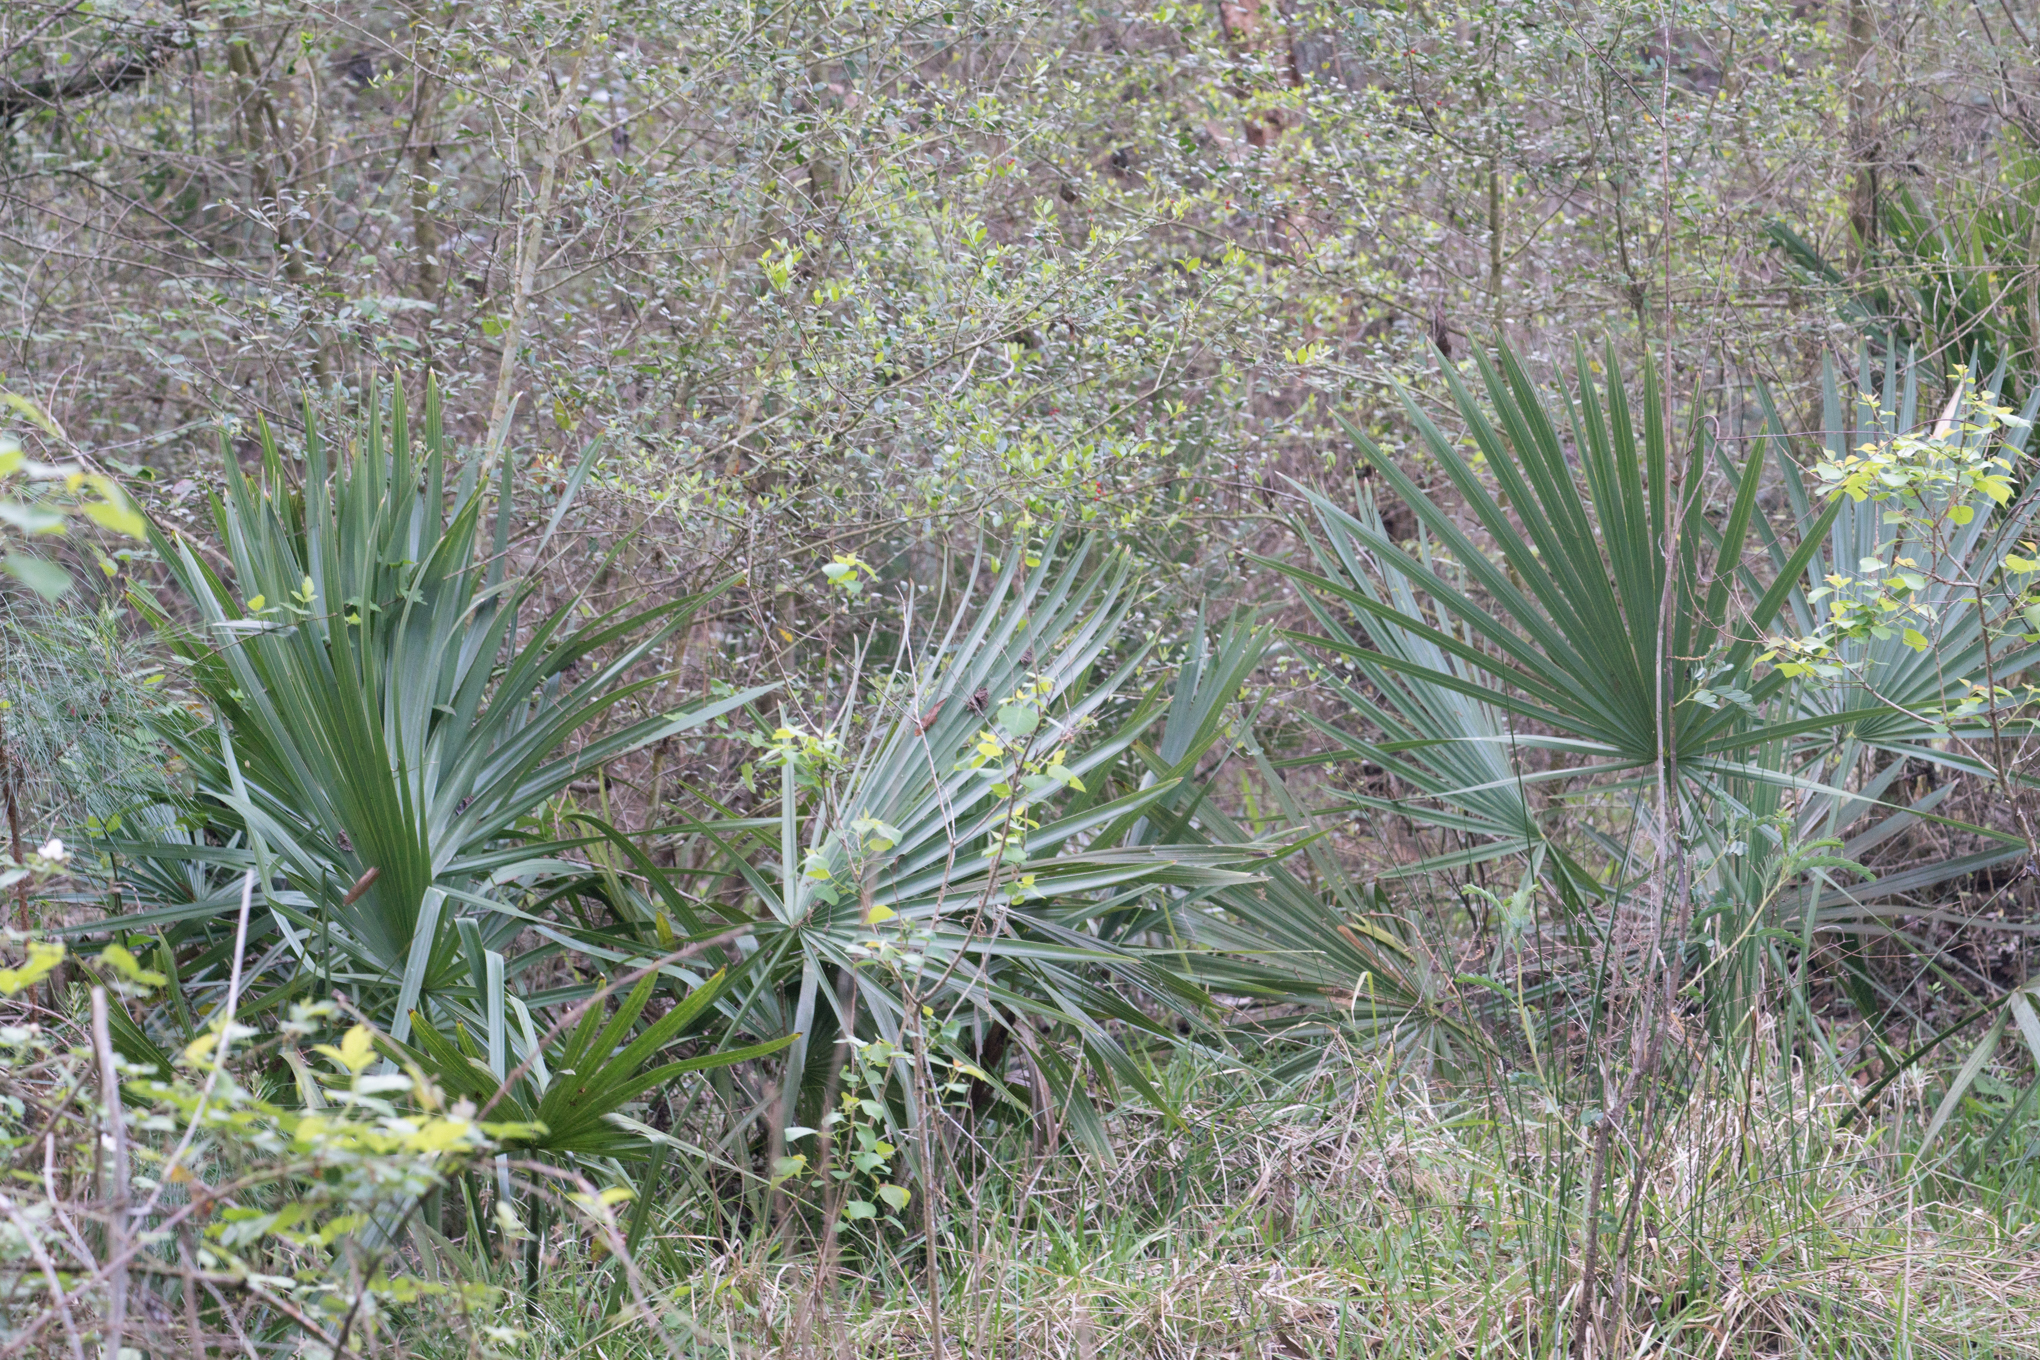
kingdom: Plantae
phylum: Tracheophyta
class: Liliopsida
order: Arecales
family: Arecaceae
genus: Sabal
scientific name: Sabal minor
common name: Dwarf palmetto
